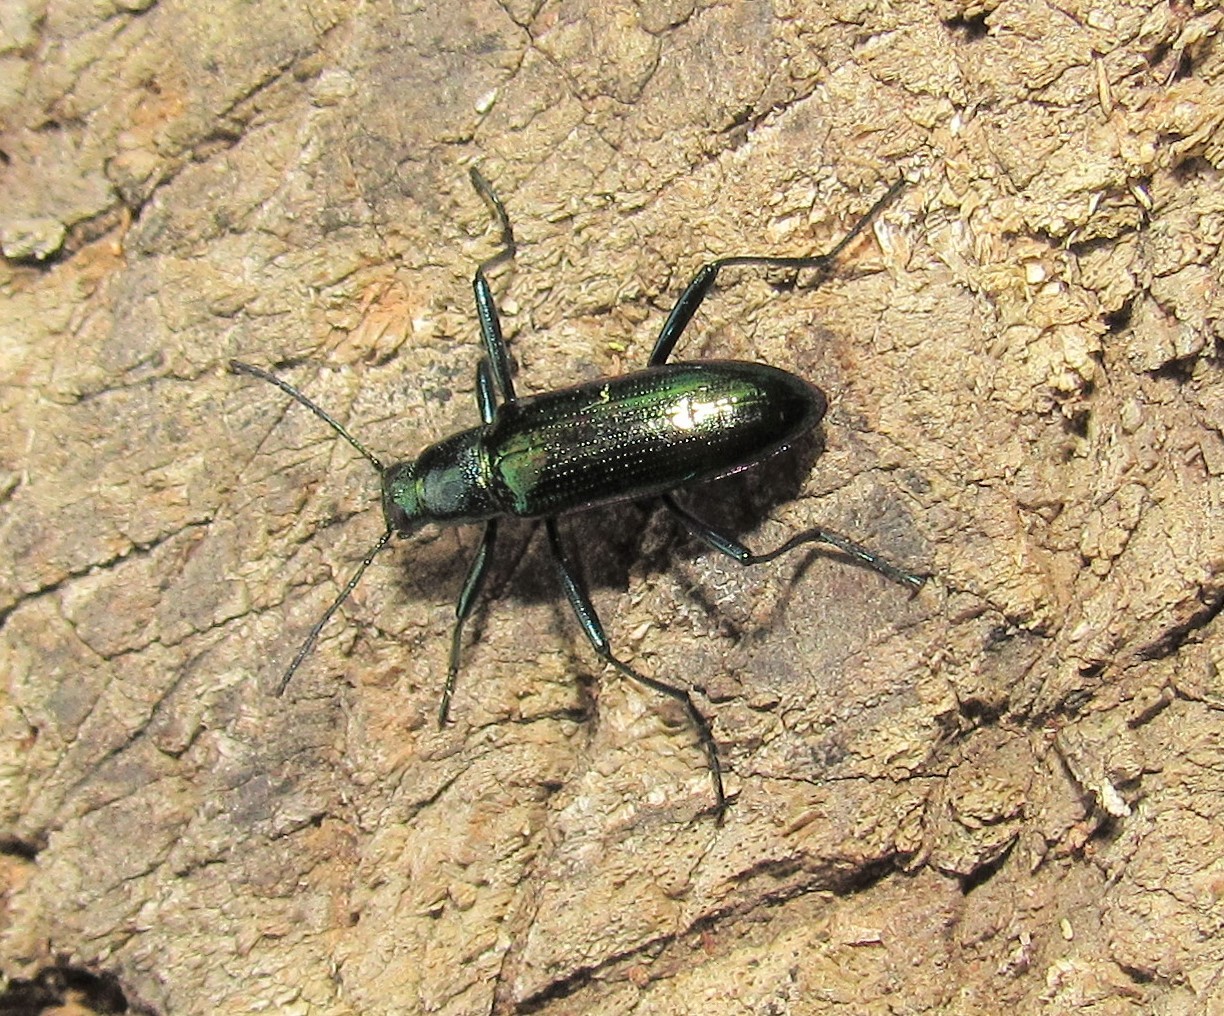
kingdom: Animalia
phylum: Arthropoda
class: Insecta
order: Coleoptera
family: Tenebrionidae
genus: Strongylium
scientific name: Strongylium
